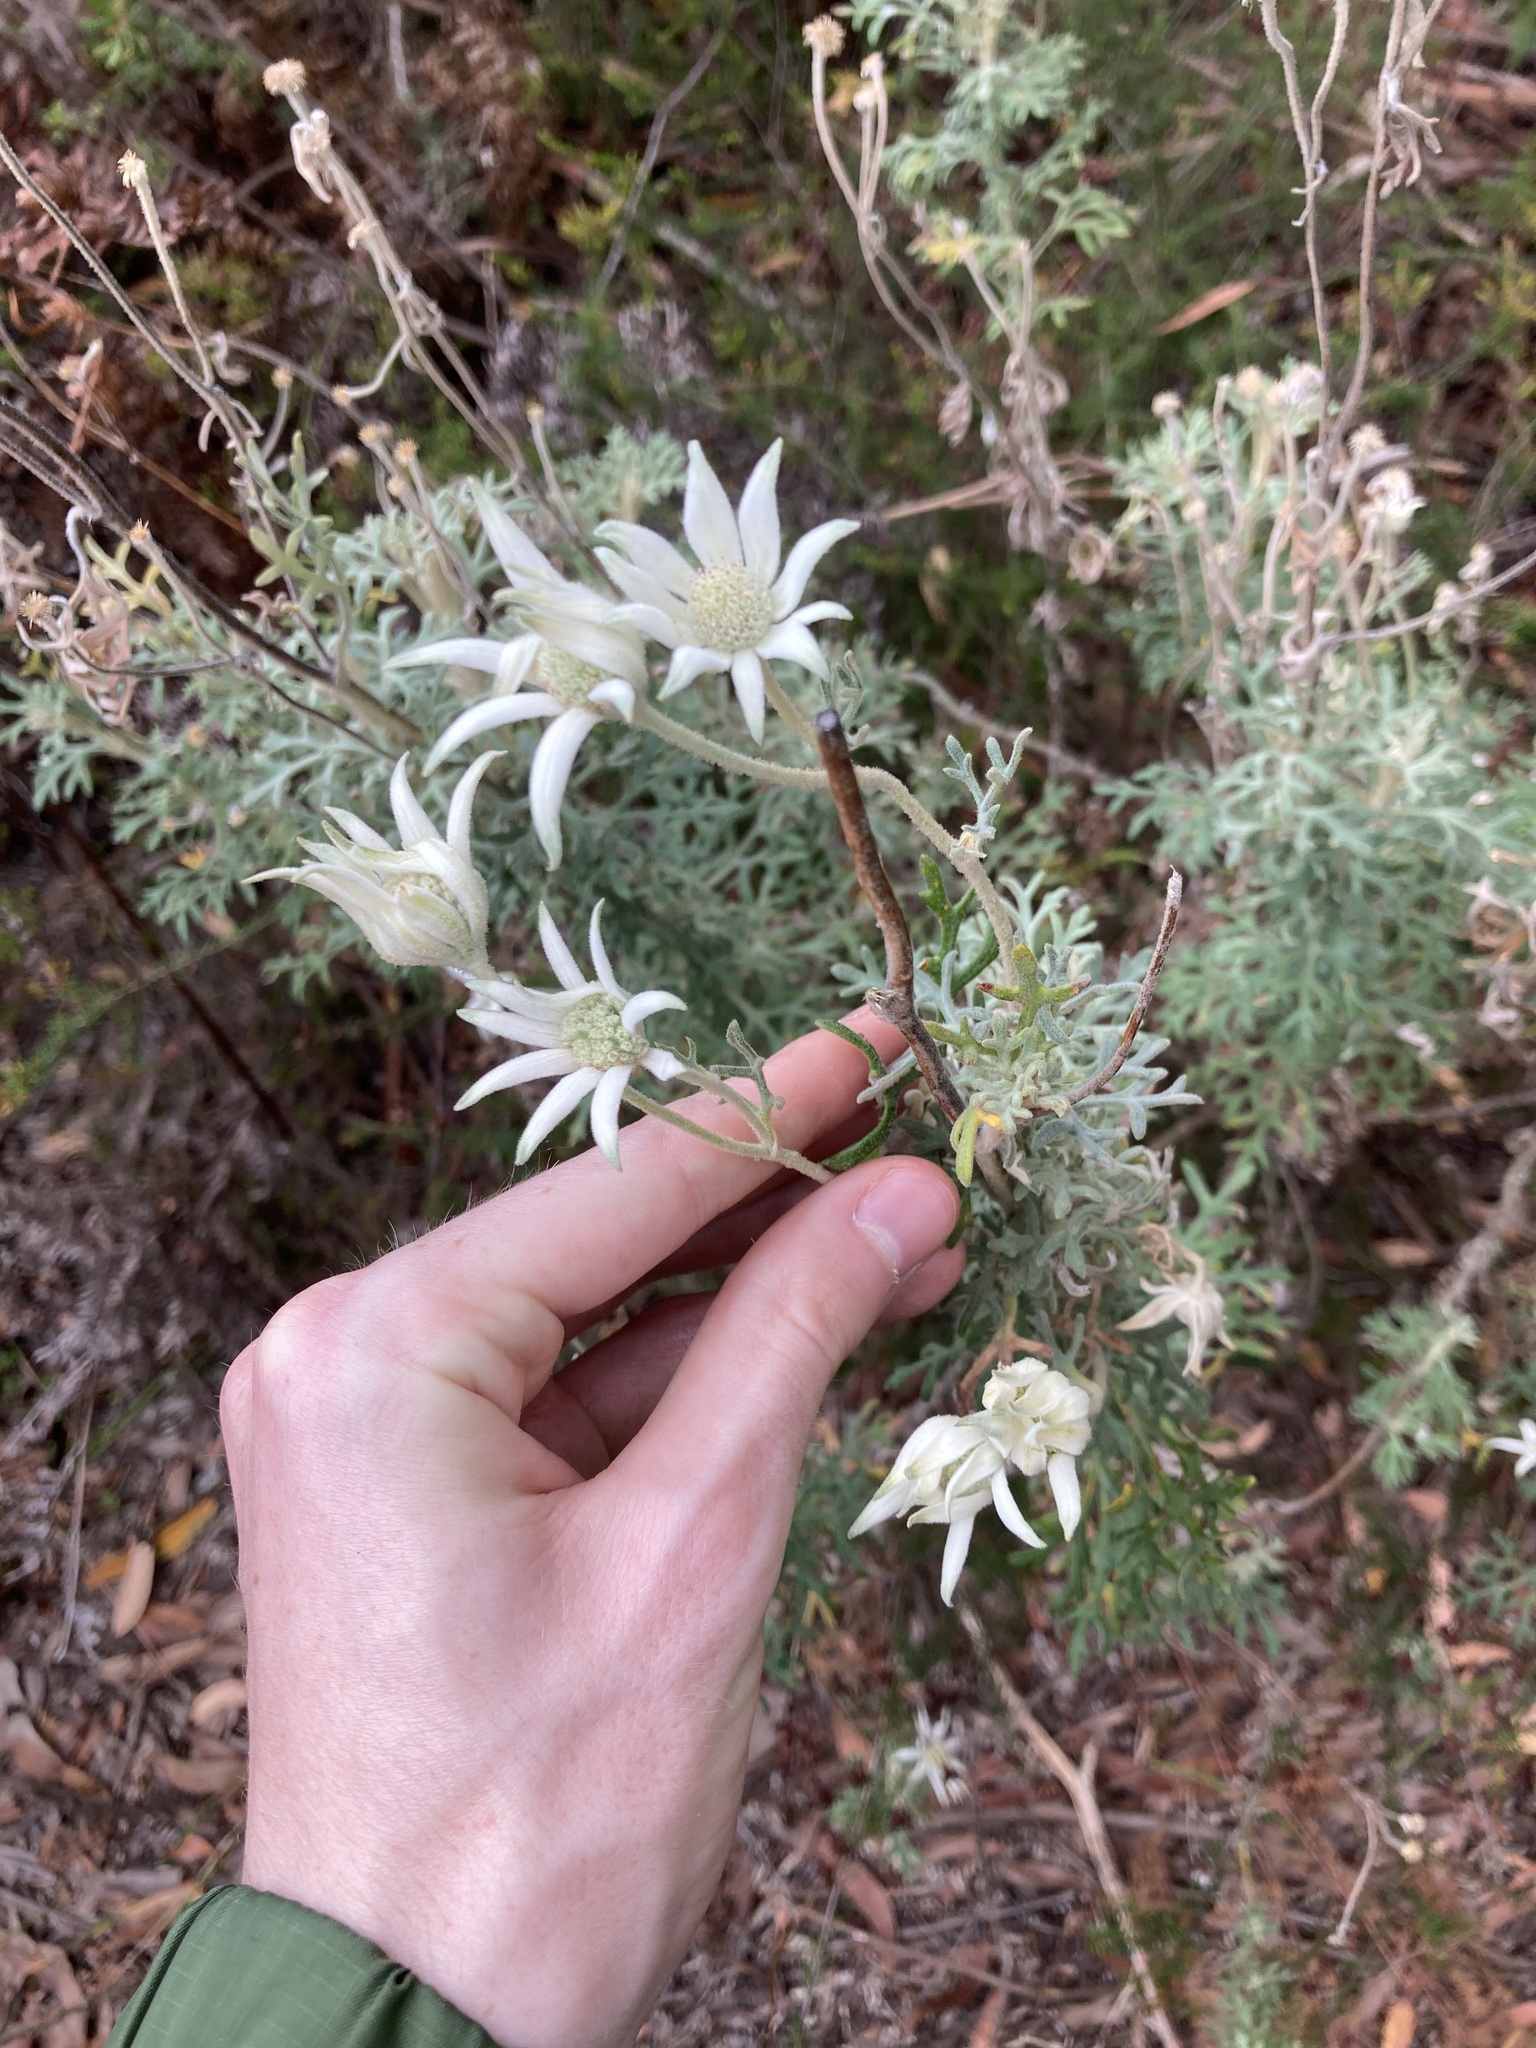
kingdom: Plantae
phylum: Tracheophyta
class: Magnoliopsida
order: Apiales
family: Apiaceae
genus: Actinotus
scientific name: Actinotus helianthi
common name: Flannel-flower
